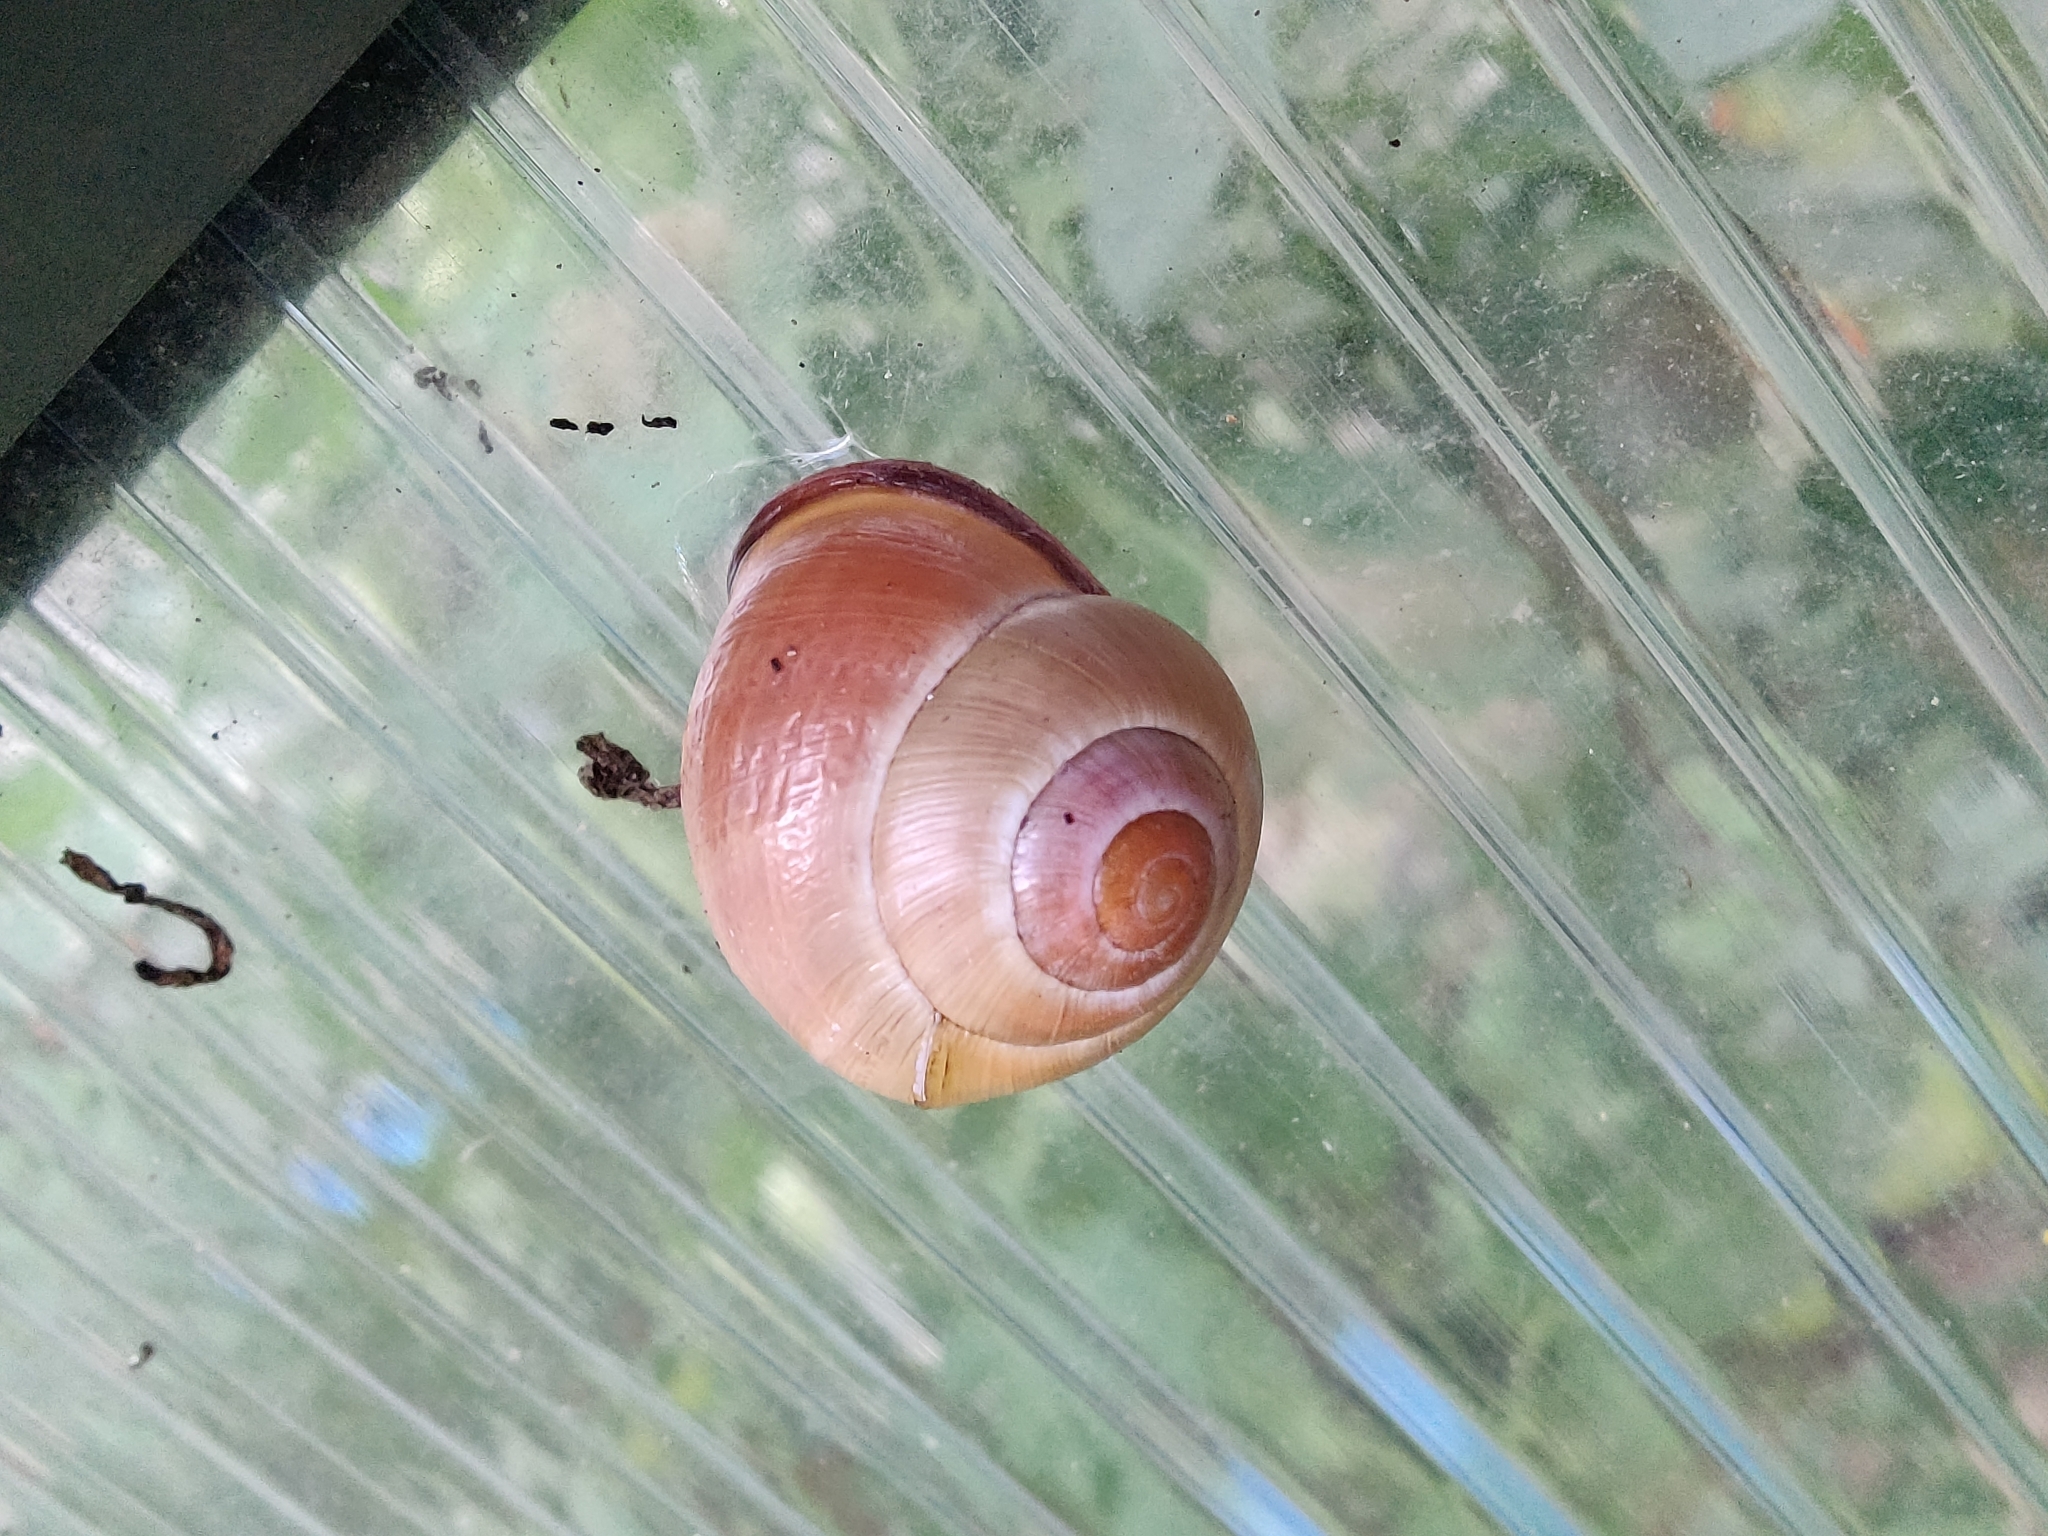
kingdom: Animalia
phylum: Mollusca
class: Gastropoda
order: Stylommatophora
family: Helicidae
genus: Cepaea
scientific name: Cepaea nemoralis
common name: Grovesnail
